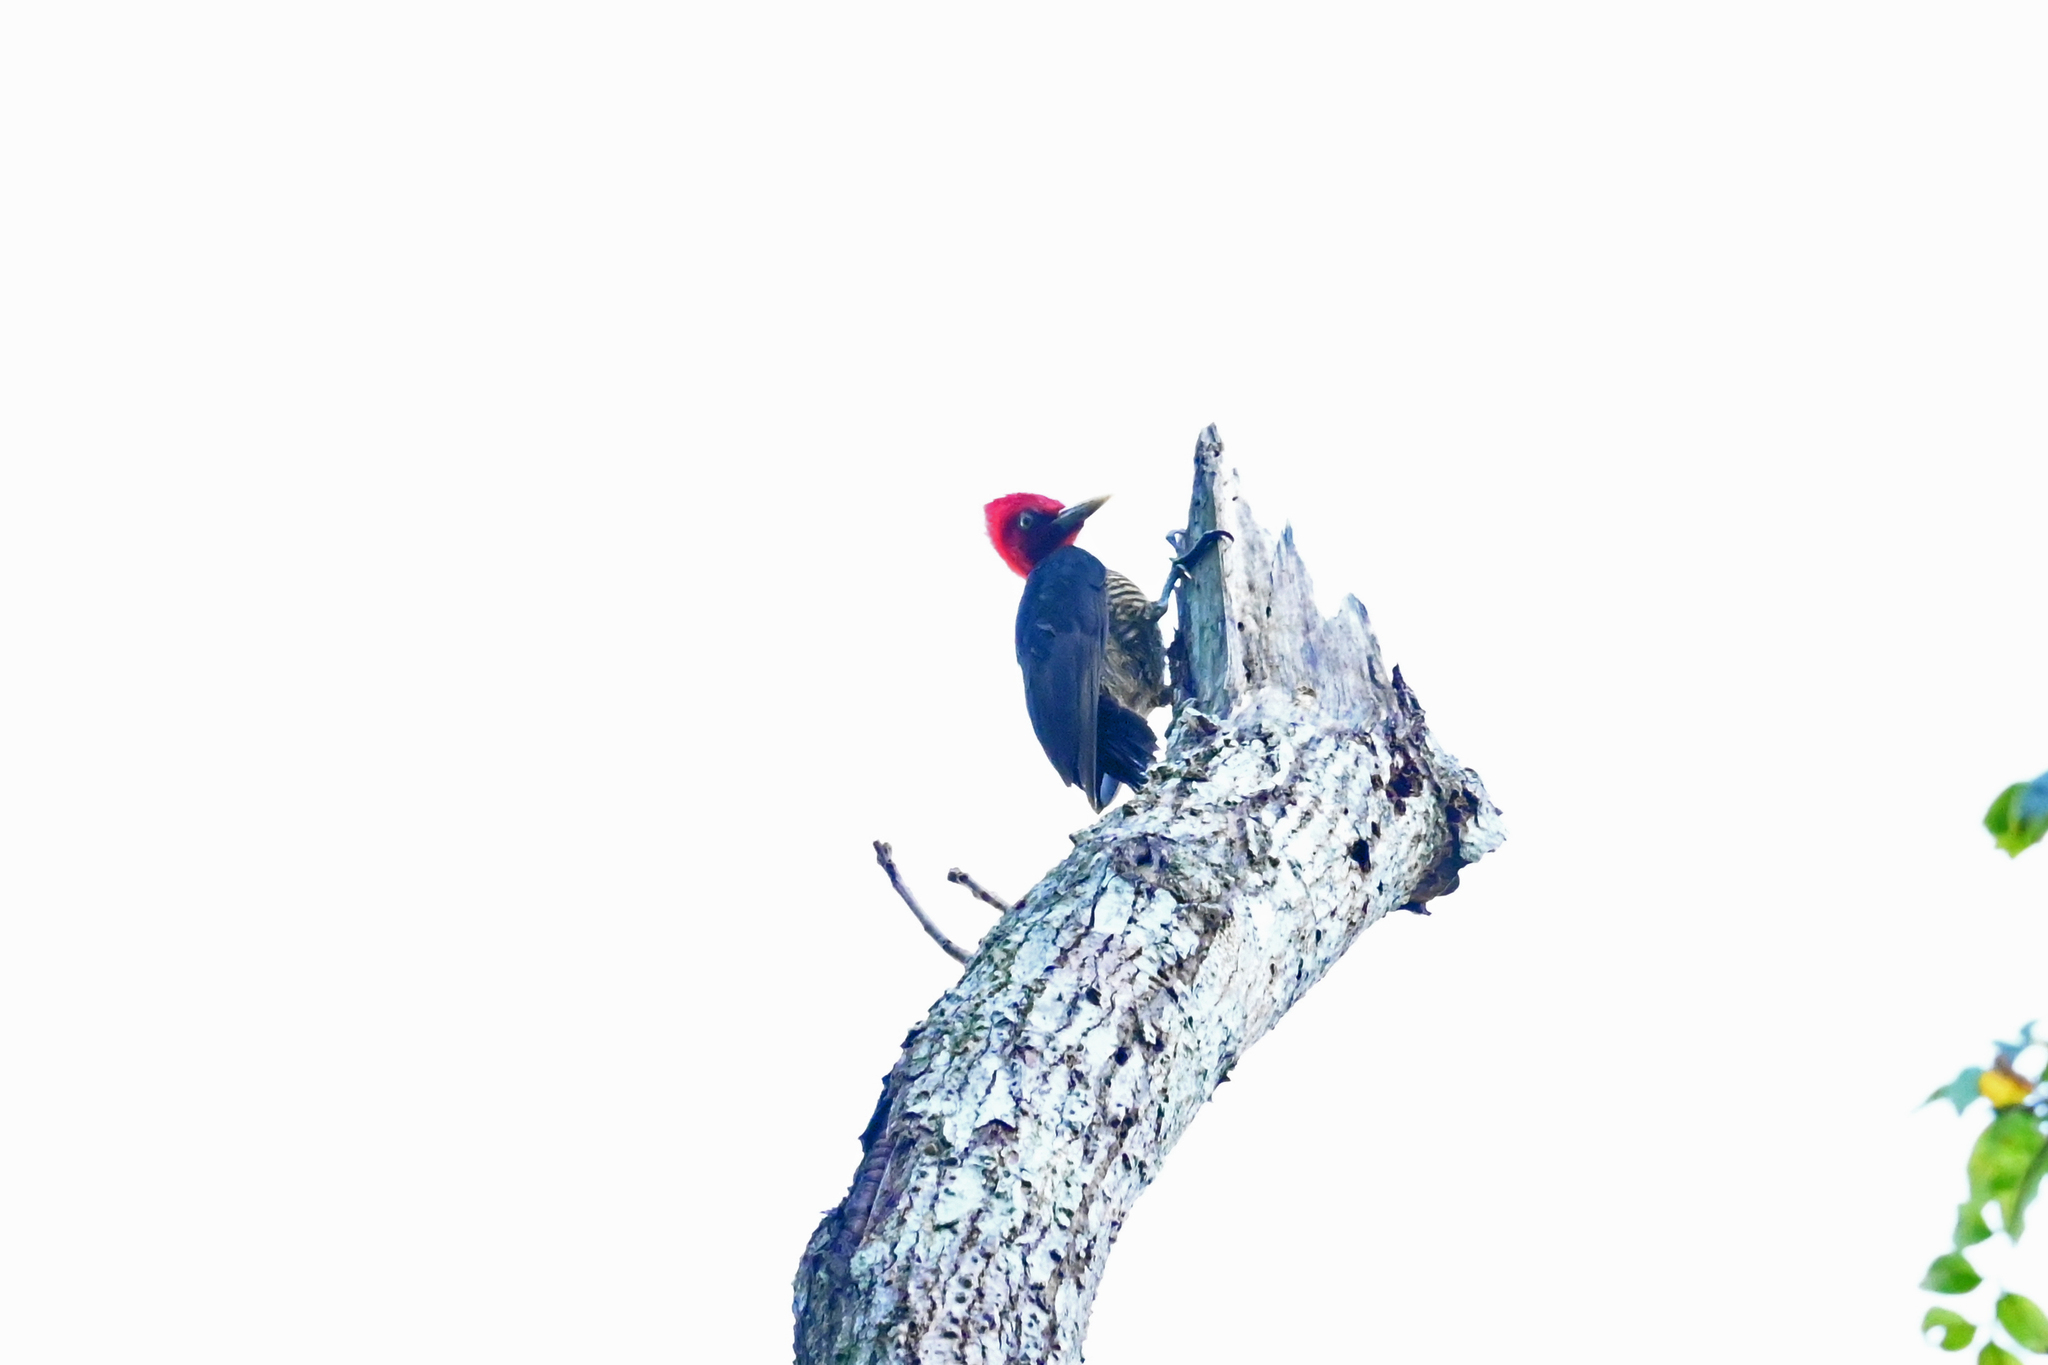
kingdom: Animalia
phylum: Chordata
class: Aves
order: Piciformes
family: Picidae
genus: Campephilus
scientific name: Campephilus guatemalensis
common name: Pale-billed woodpecker
